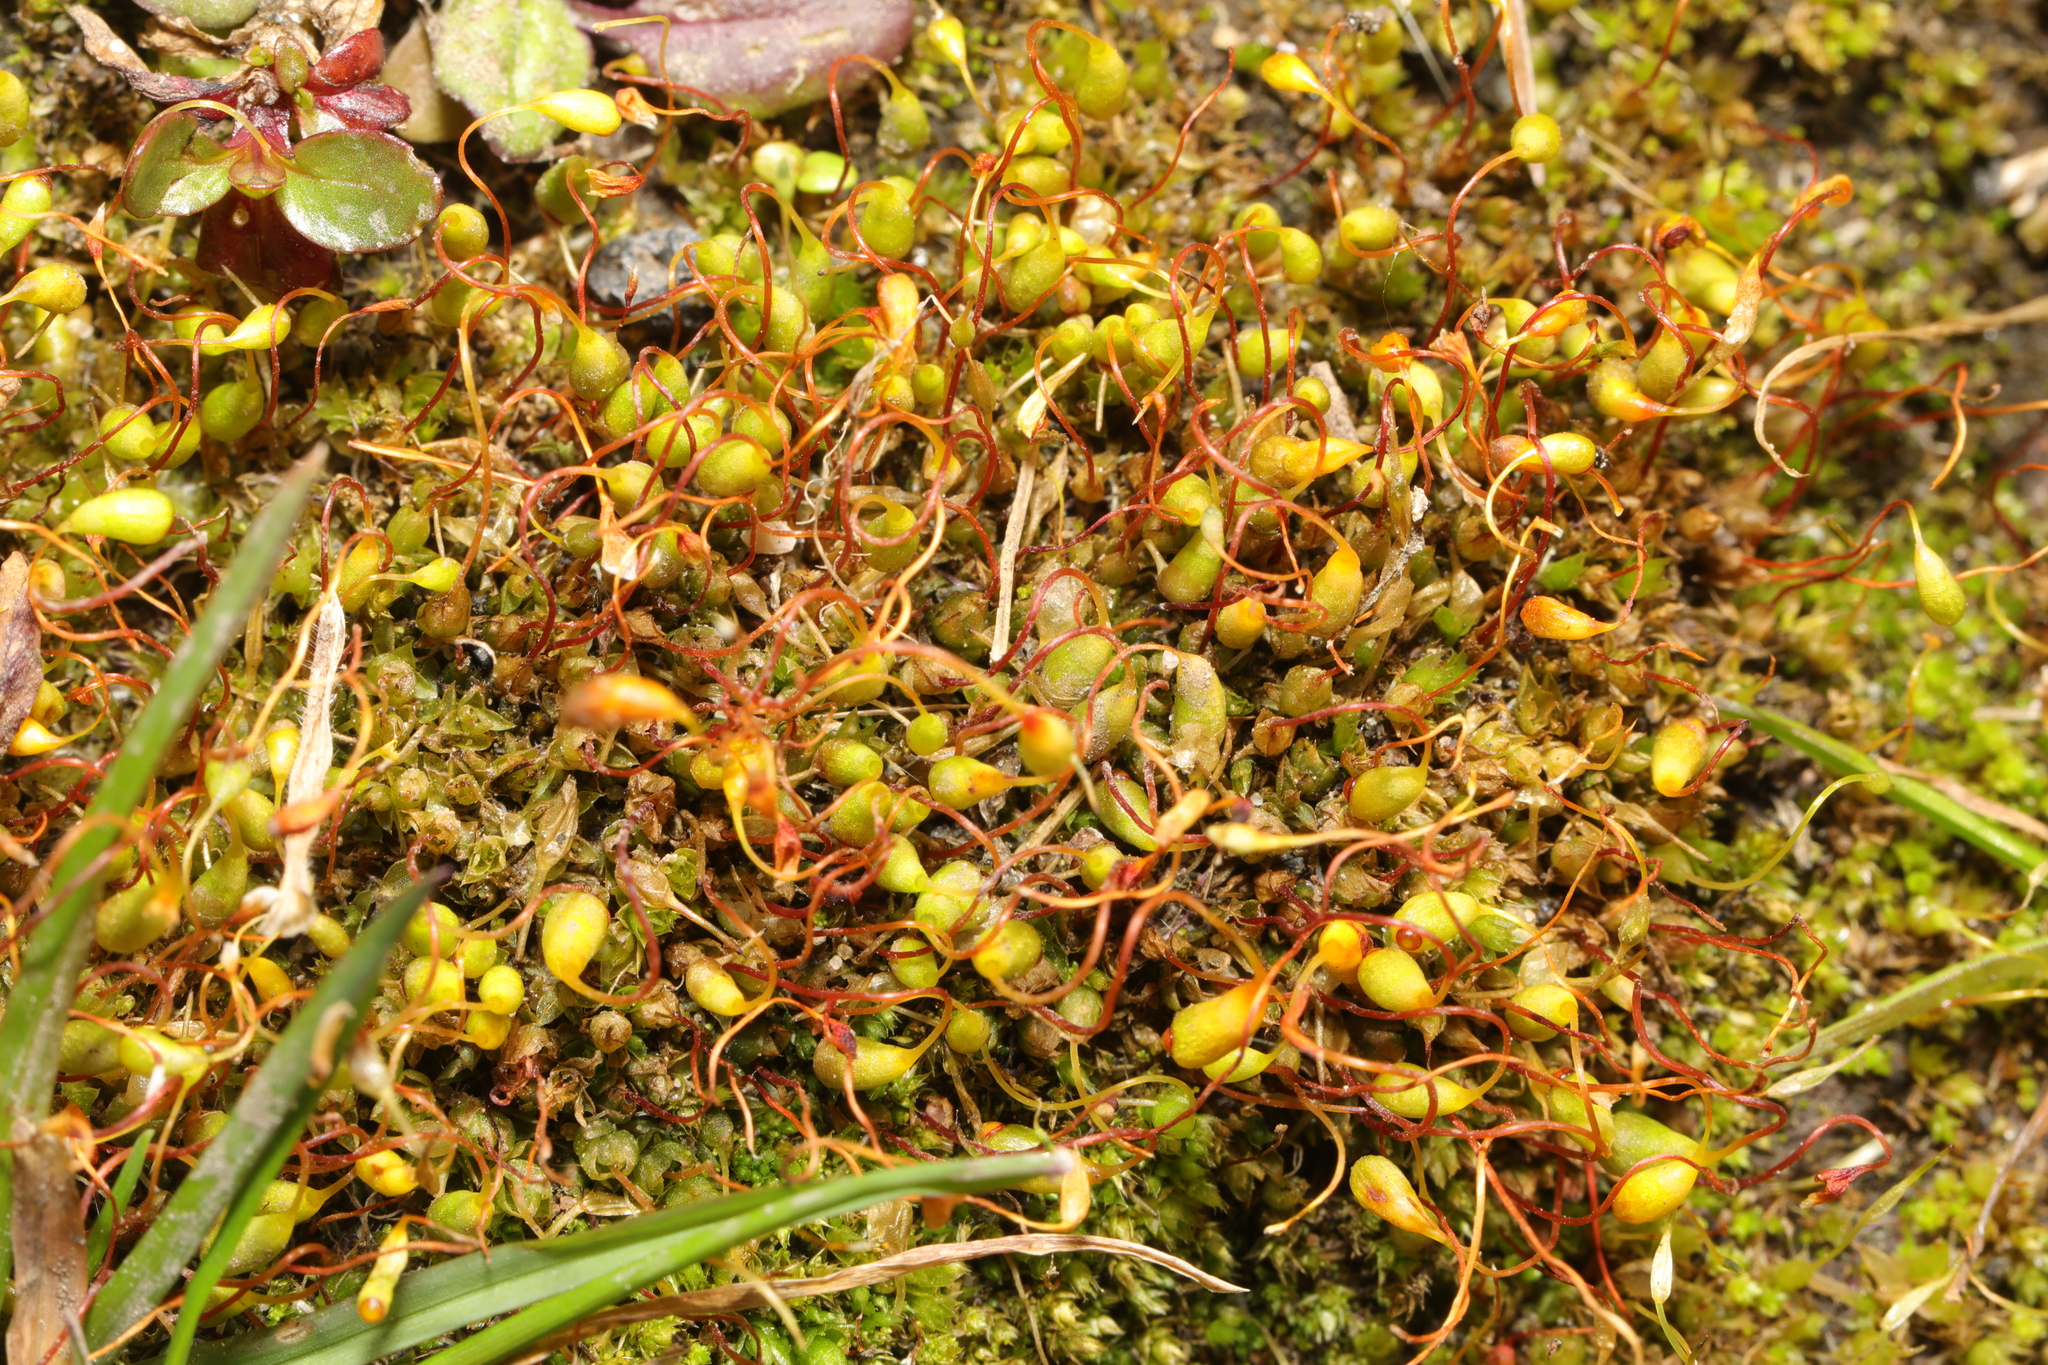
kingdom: Plantae
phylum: Bryophyta
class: Bryopsida
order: Funariales
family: Funariaceae
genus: Funaria
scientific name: Funaria hygrometrica
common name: Common cord moss
